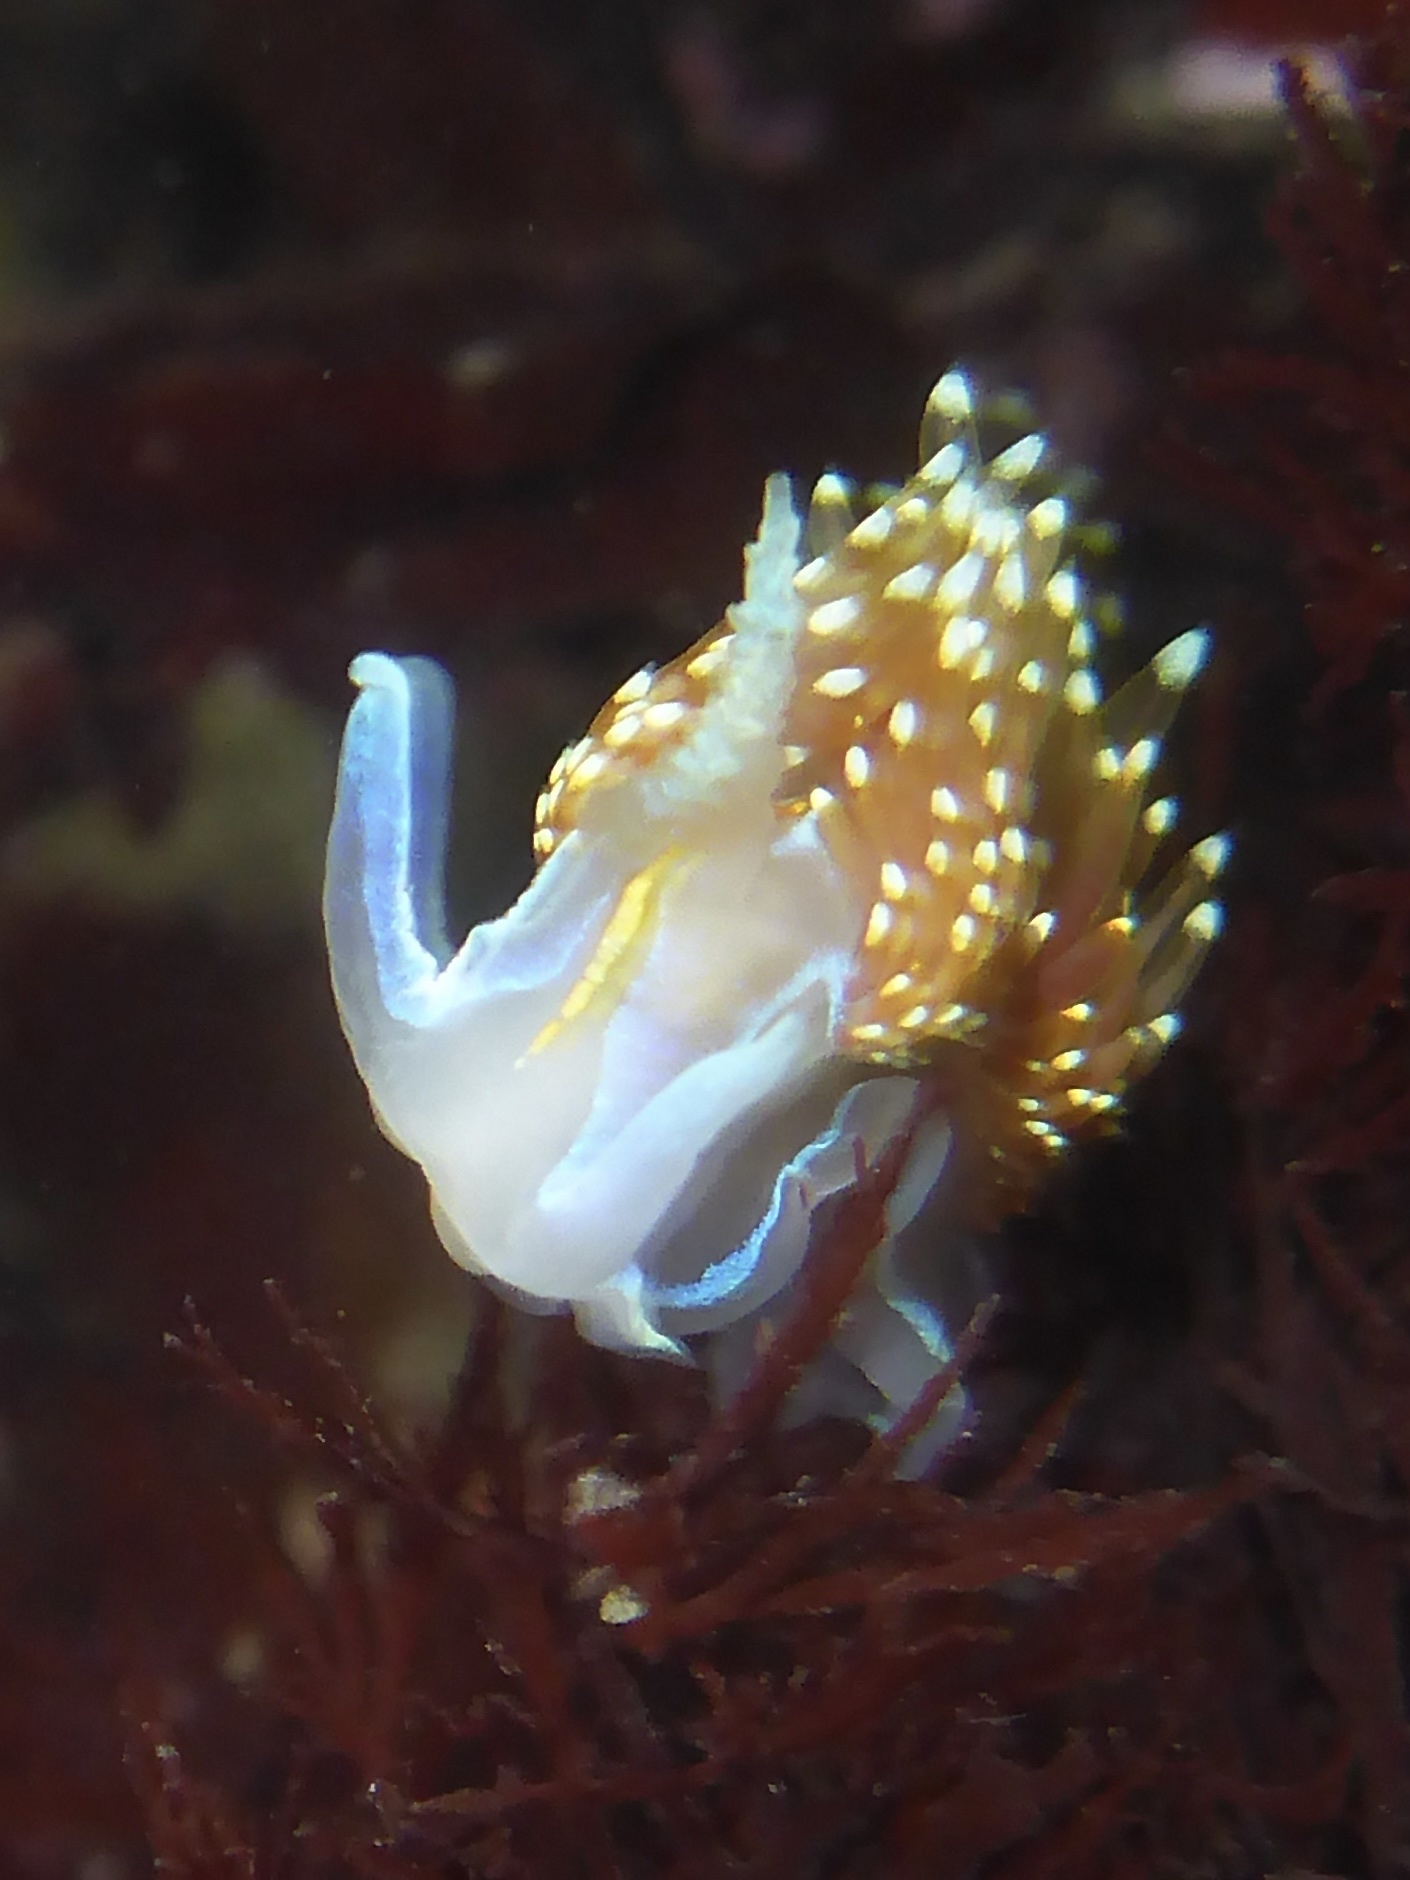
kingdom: Animalia
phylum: Mollusca
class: Gastropoda
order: Nudibranchia
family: Myrrhinidae
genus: Hermissenda
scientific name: Hermissenda opalescens
